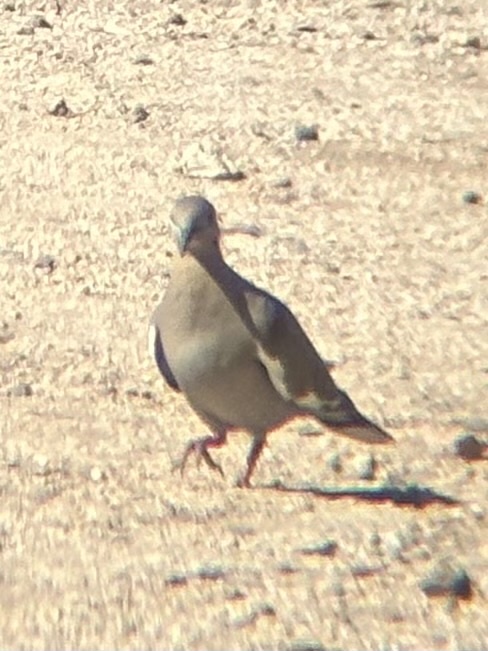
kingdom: Animalia
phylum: Chordata
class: Aves
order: Columbiformes
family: Columbidae
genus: Zenaida
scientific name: Zenaida asiatica
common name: White-winged dove
